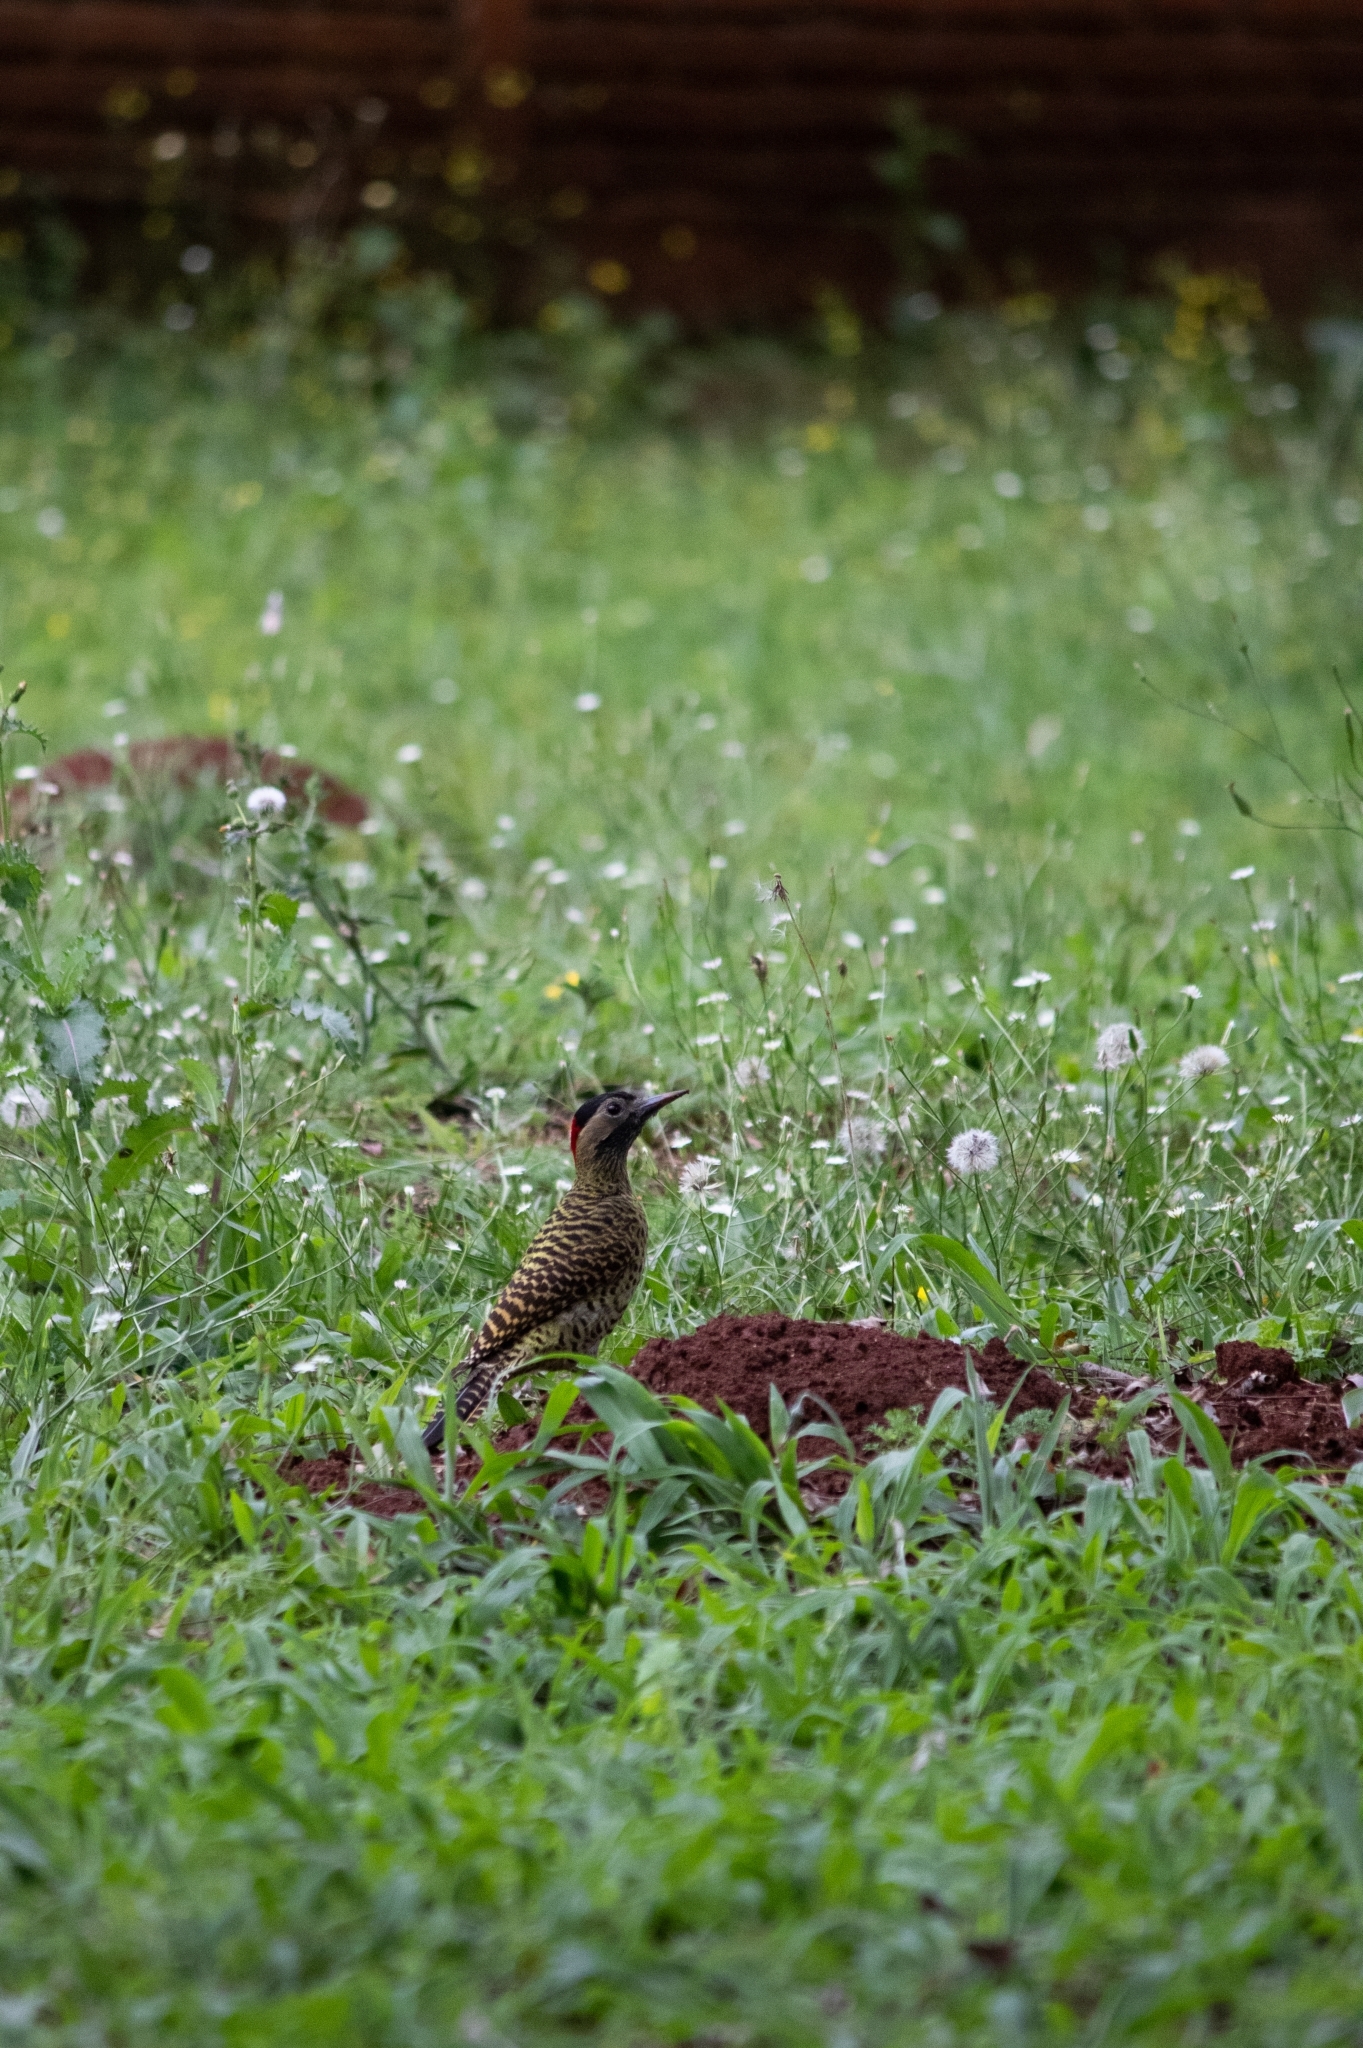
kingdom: Animalia
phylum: Chordata
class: Aves
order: Piciformes
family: Picidae
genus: Colaptes
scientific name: Colaptes melanochloros
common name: Green-barred woodpecker
